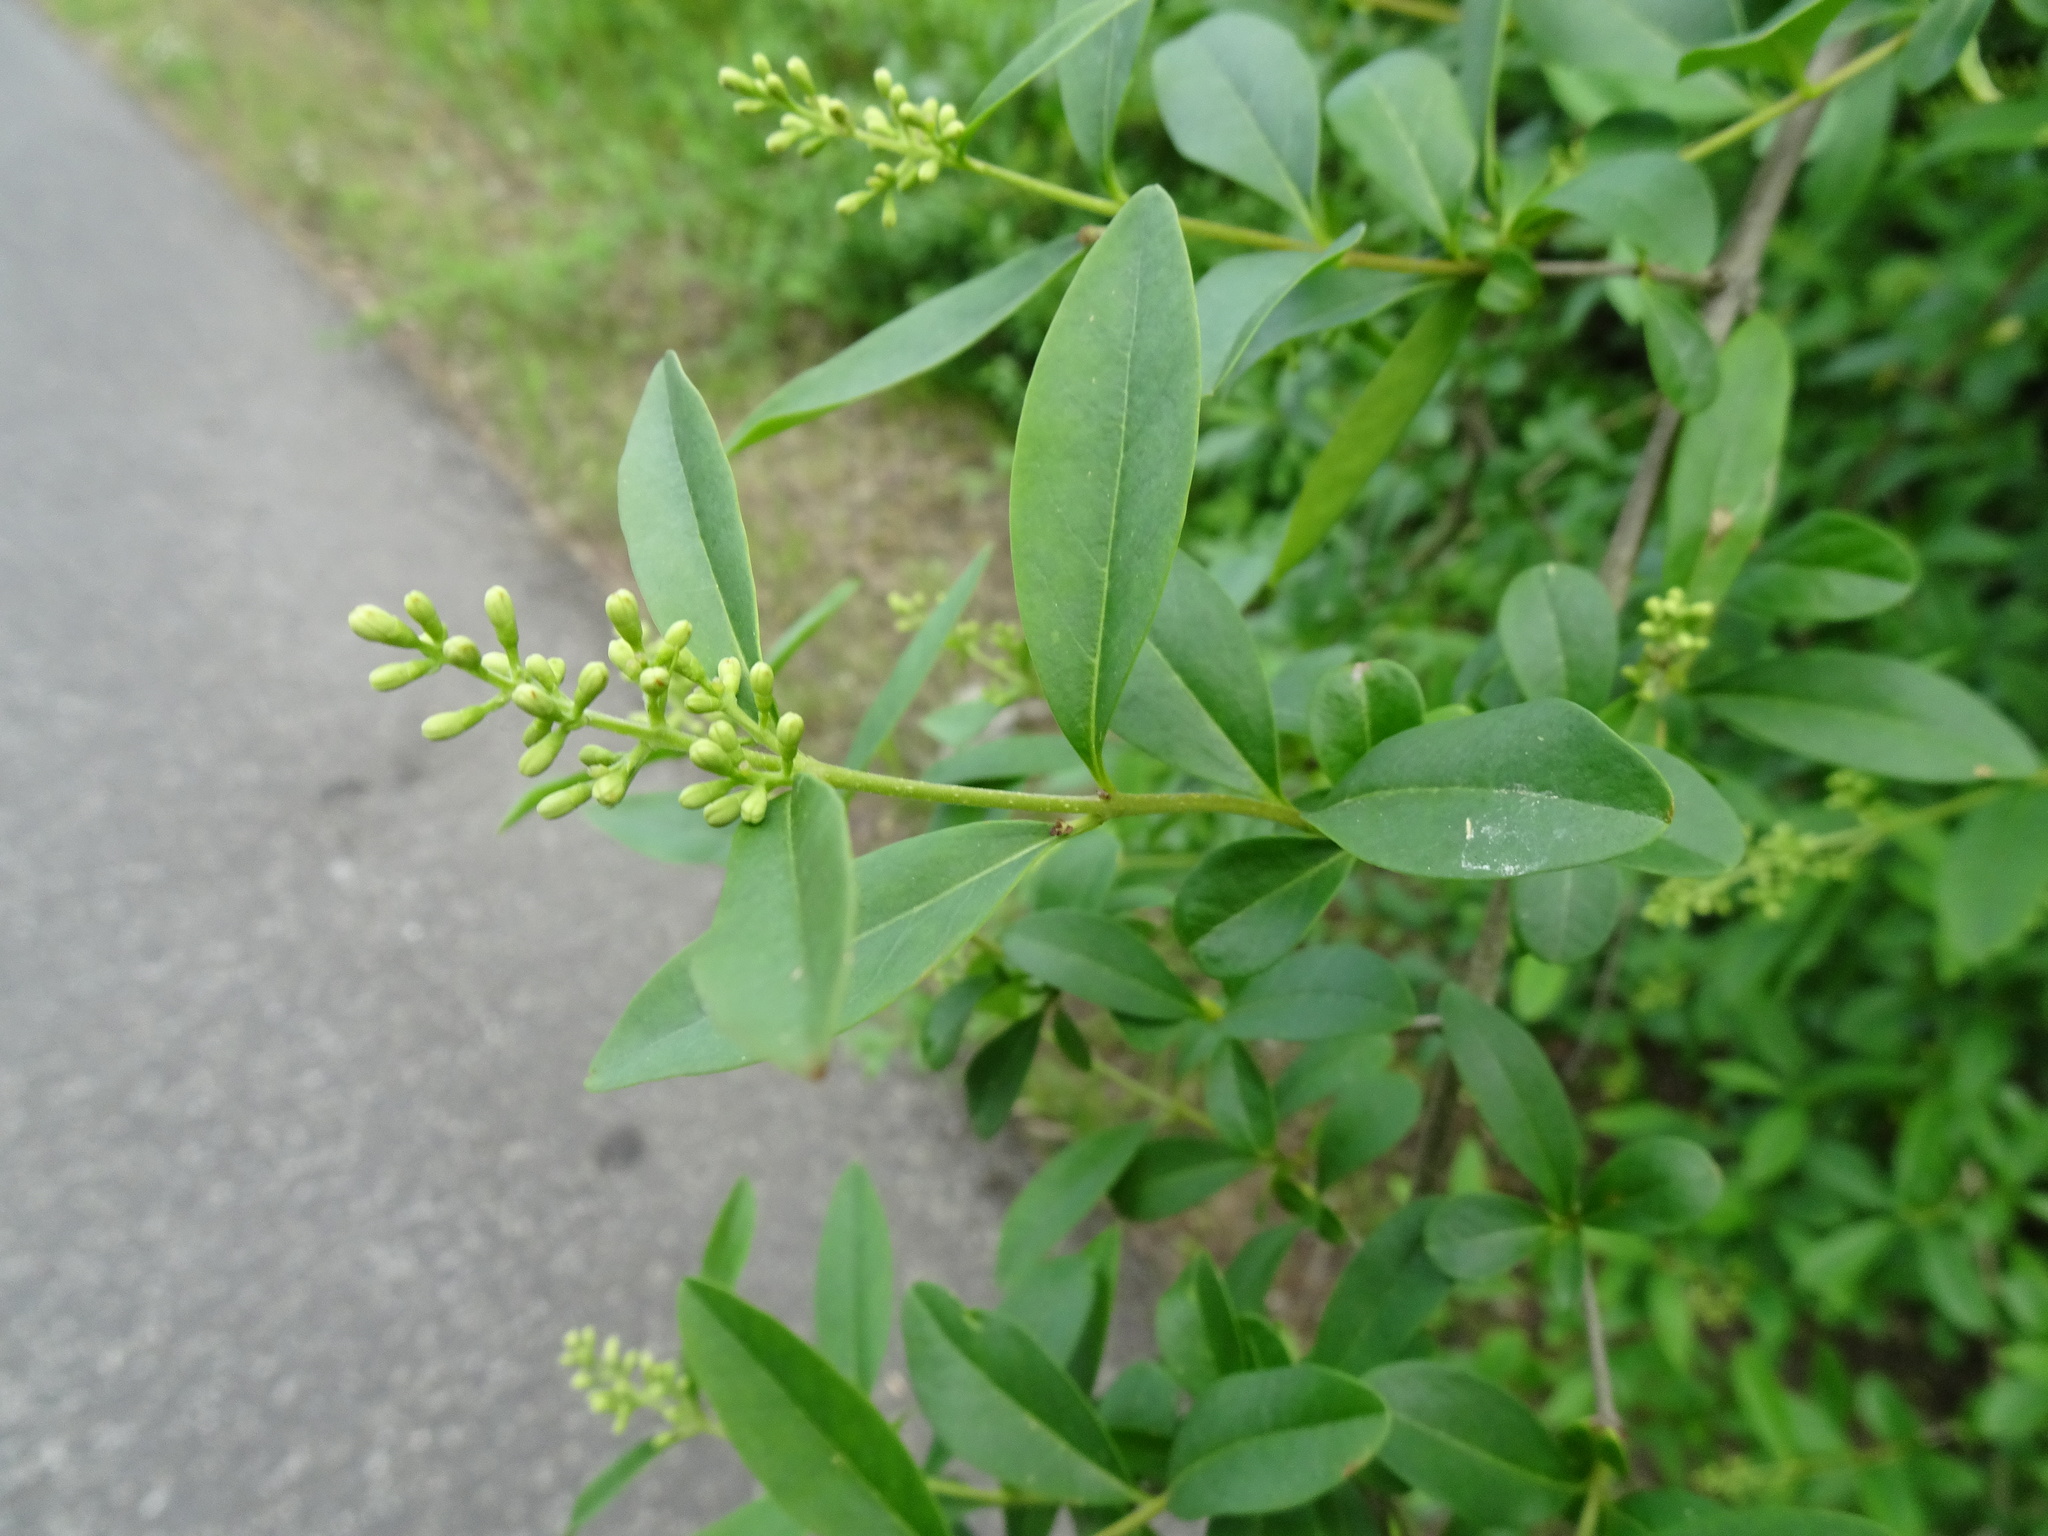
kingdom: Plantae
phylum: Tracheophyta
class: Magnoliopsida
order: Lamiales
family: Oleaceae
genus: Ligustrum
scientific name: Ligustrum vulgare
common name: Wild privet
